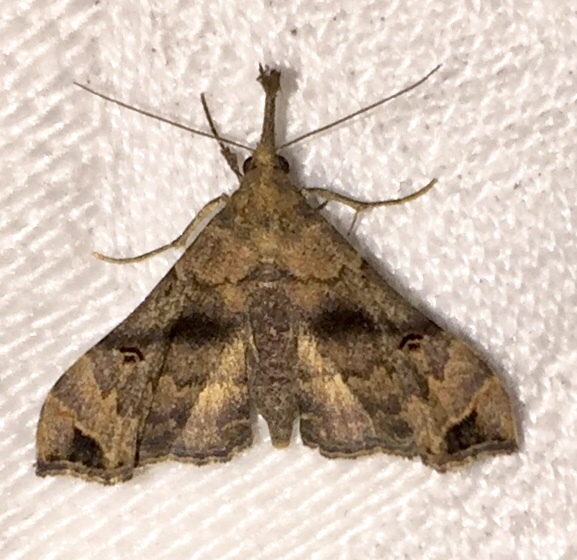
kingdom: Animalia
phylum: Arthropoda
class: Insecta
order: Lepidoptera
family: Erebidae
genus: Palthis
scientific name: Palthis asopialis
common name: Faint-spotted palthis moth
